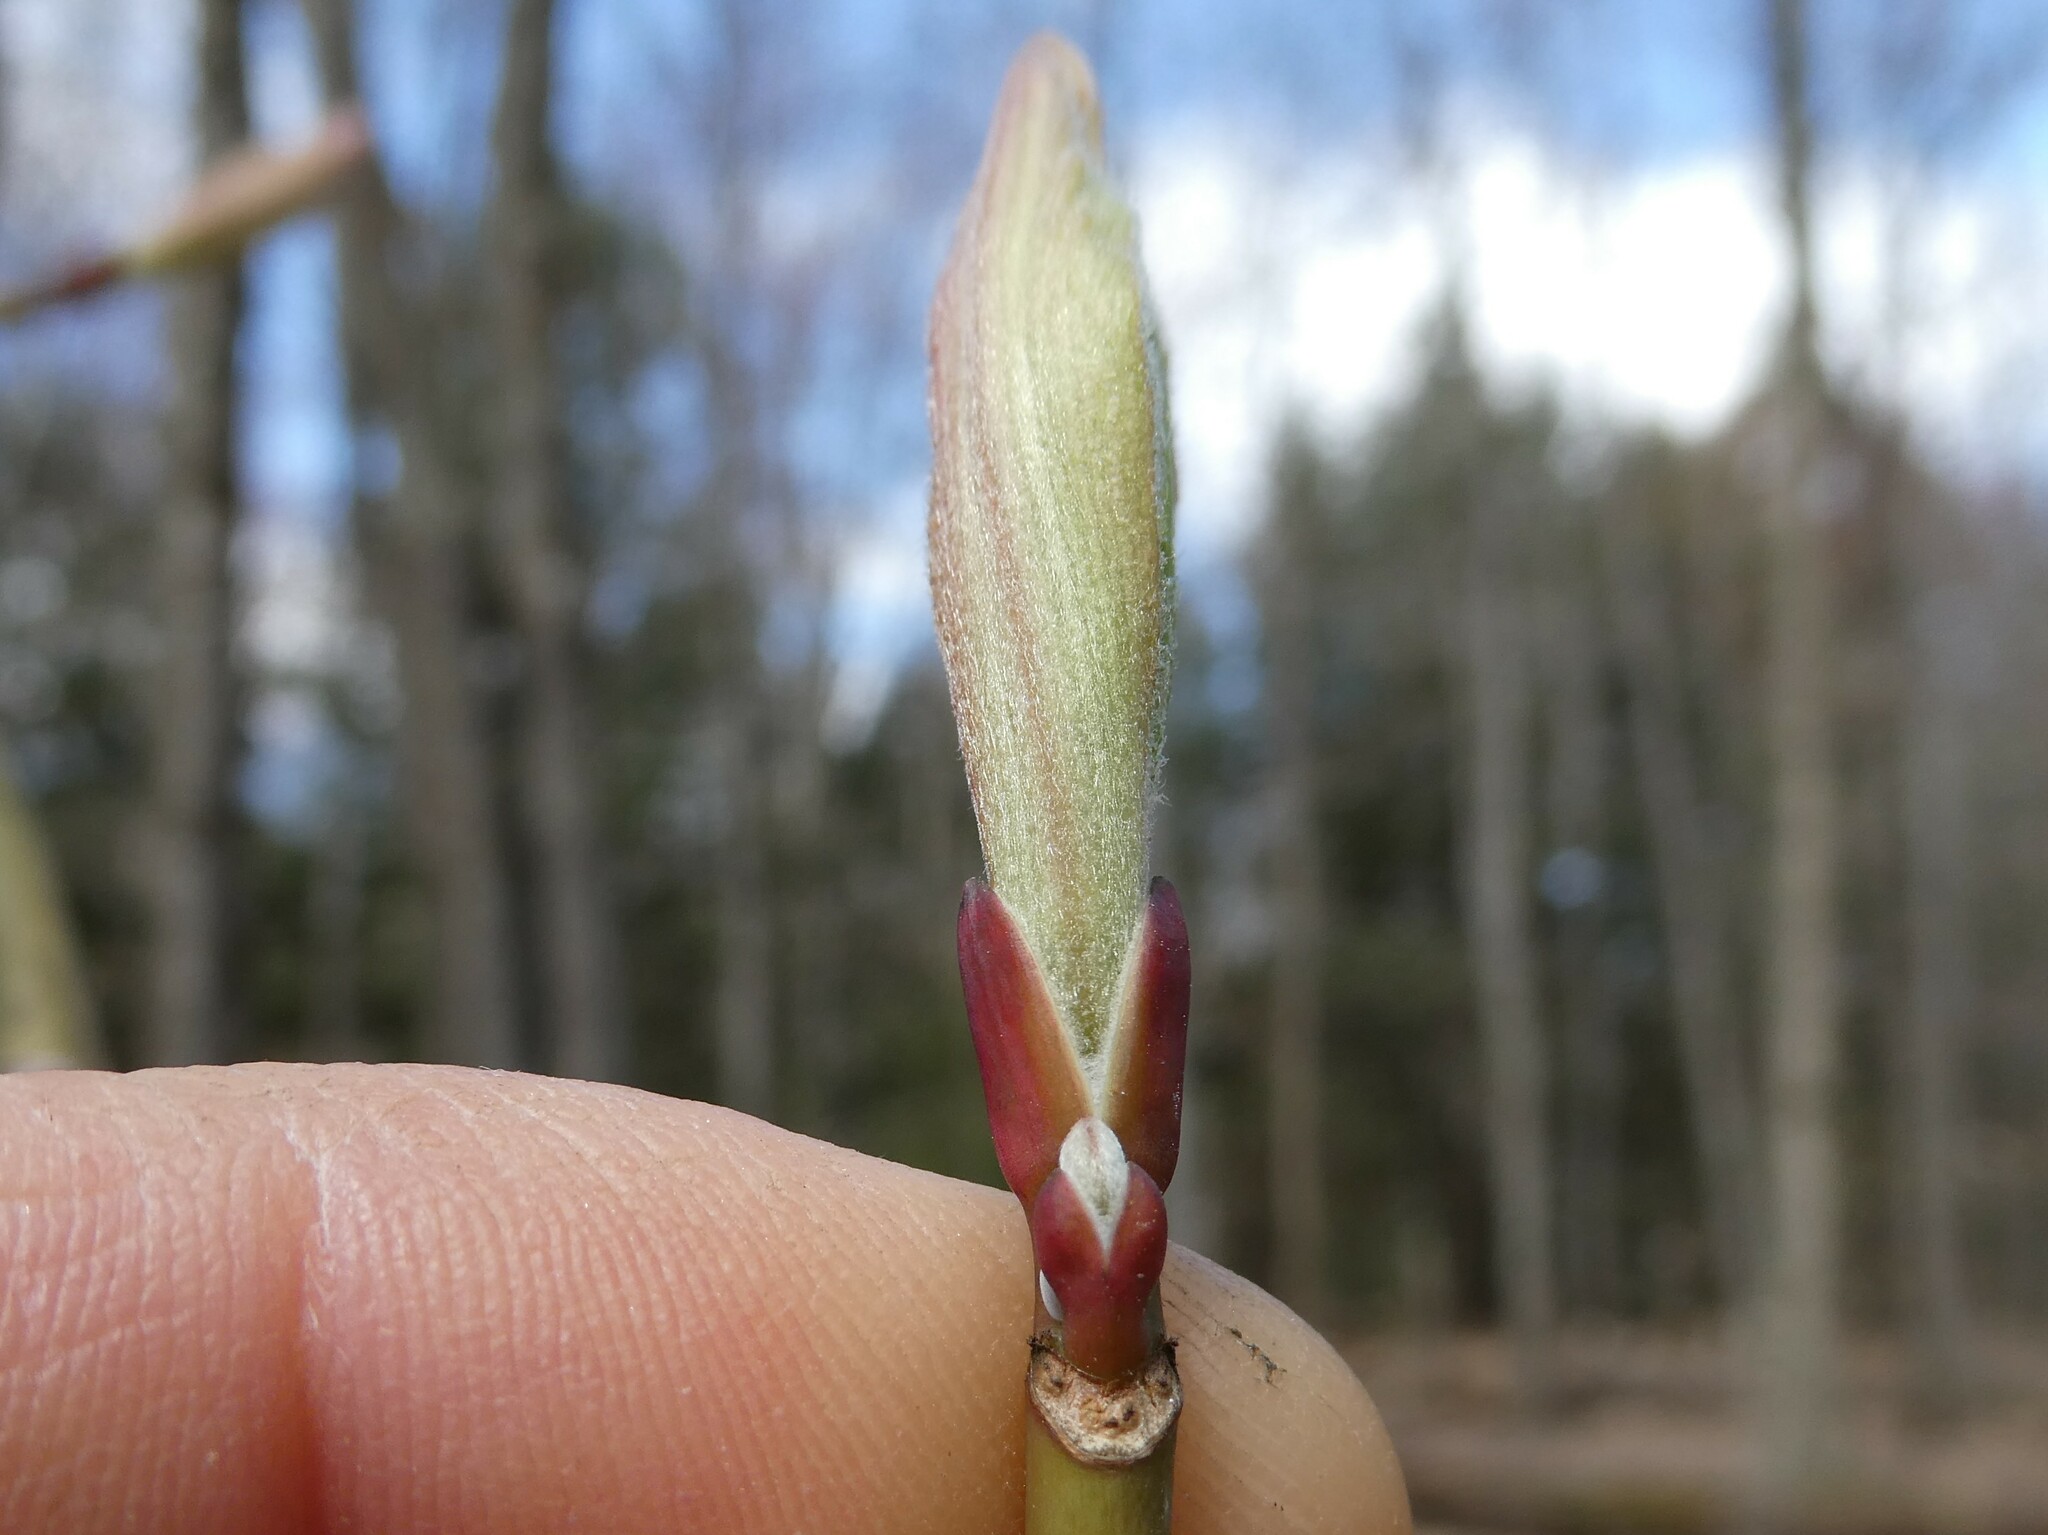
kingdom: Plantae
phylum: Tracheophyta
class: Magnoliopsida
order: Sapindales
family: Sapindaceae
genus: Acer
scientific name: Acer pensylvanicum
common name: Moosewood
